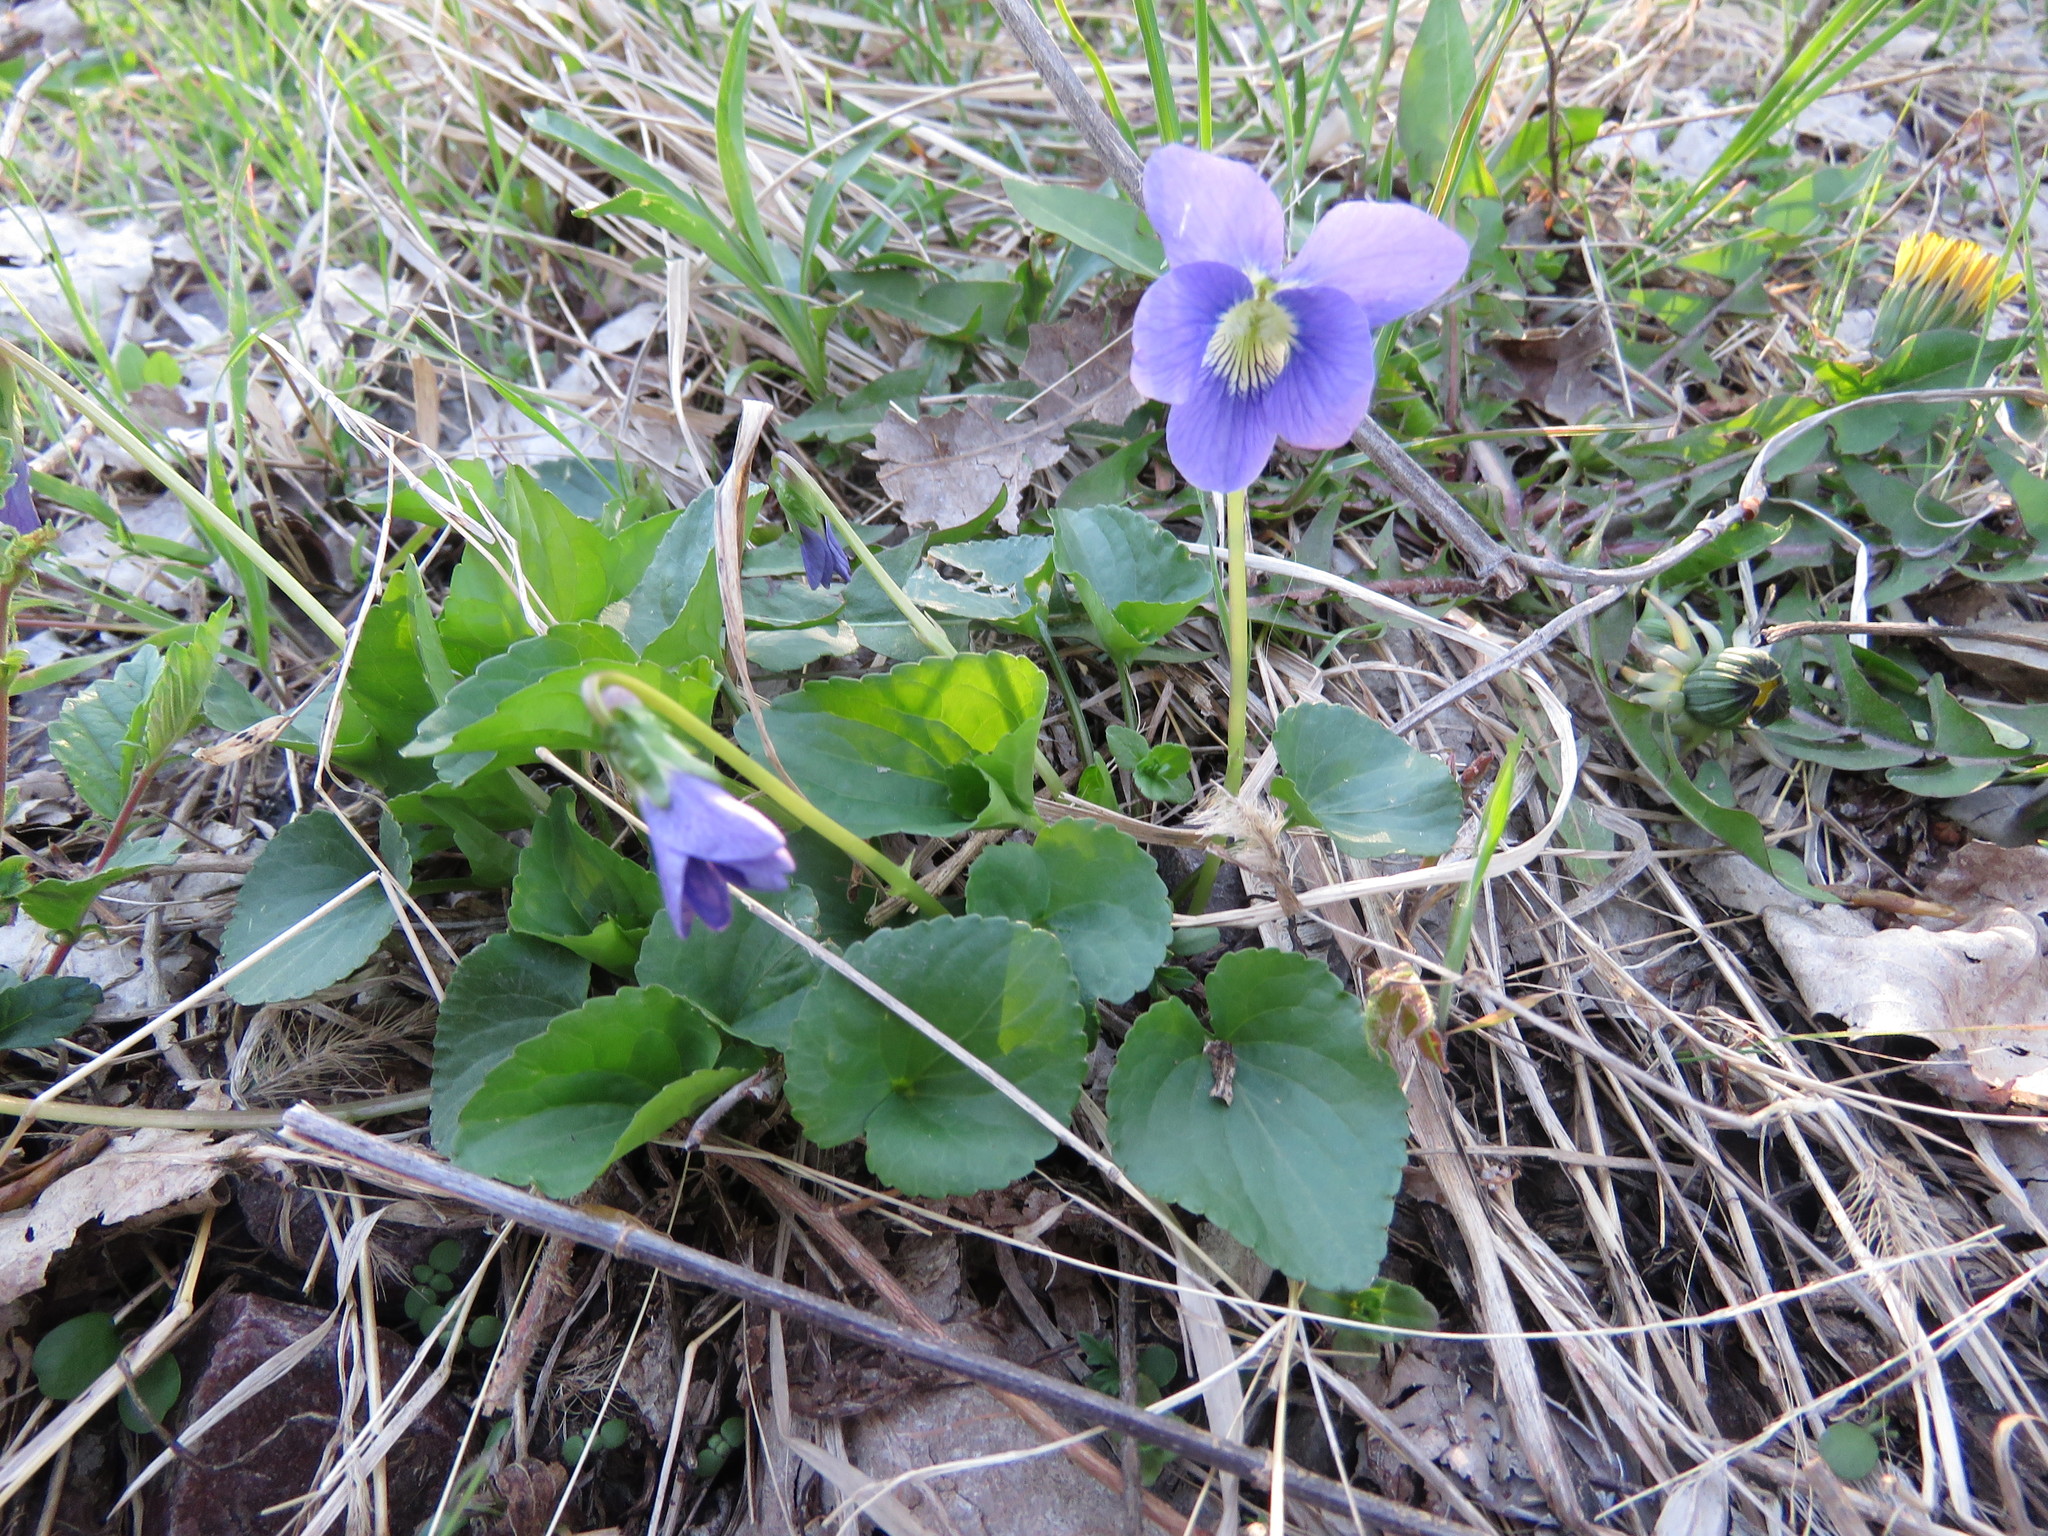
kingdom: Plantae
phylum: Tracheophyta
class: Magnoliopsida
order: Malpighiales
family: Violaceae
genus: Viola
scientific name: Viola sororia
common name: Dooryard violet
